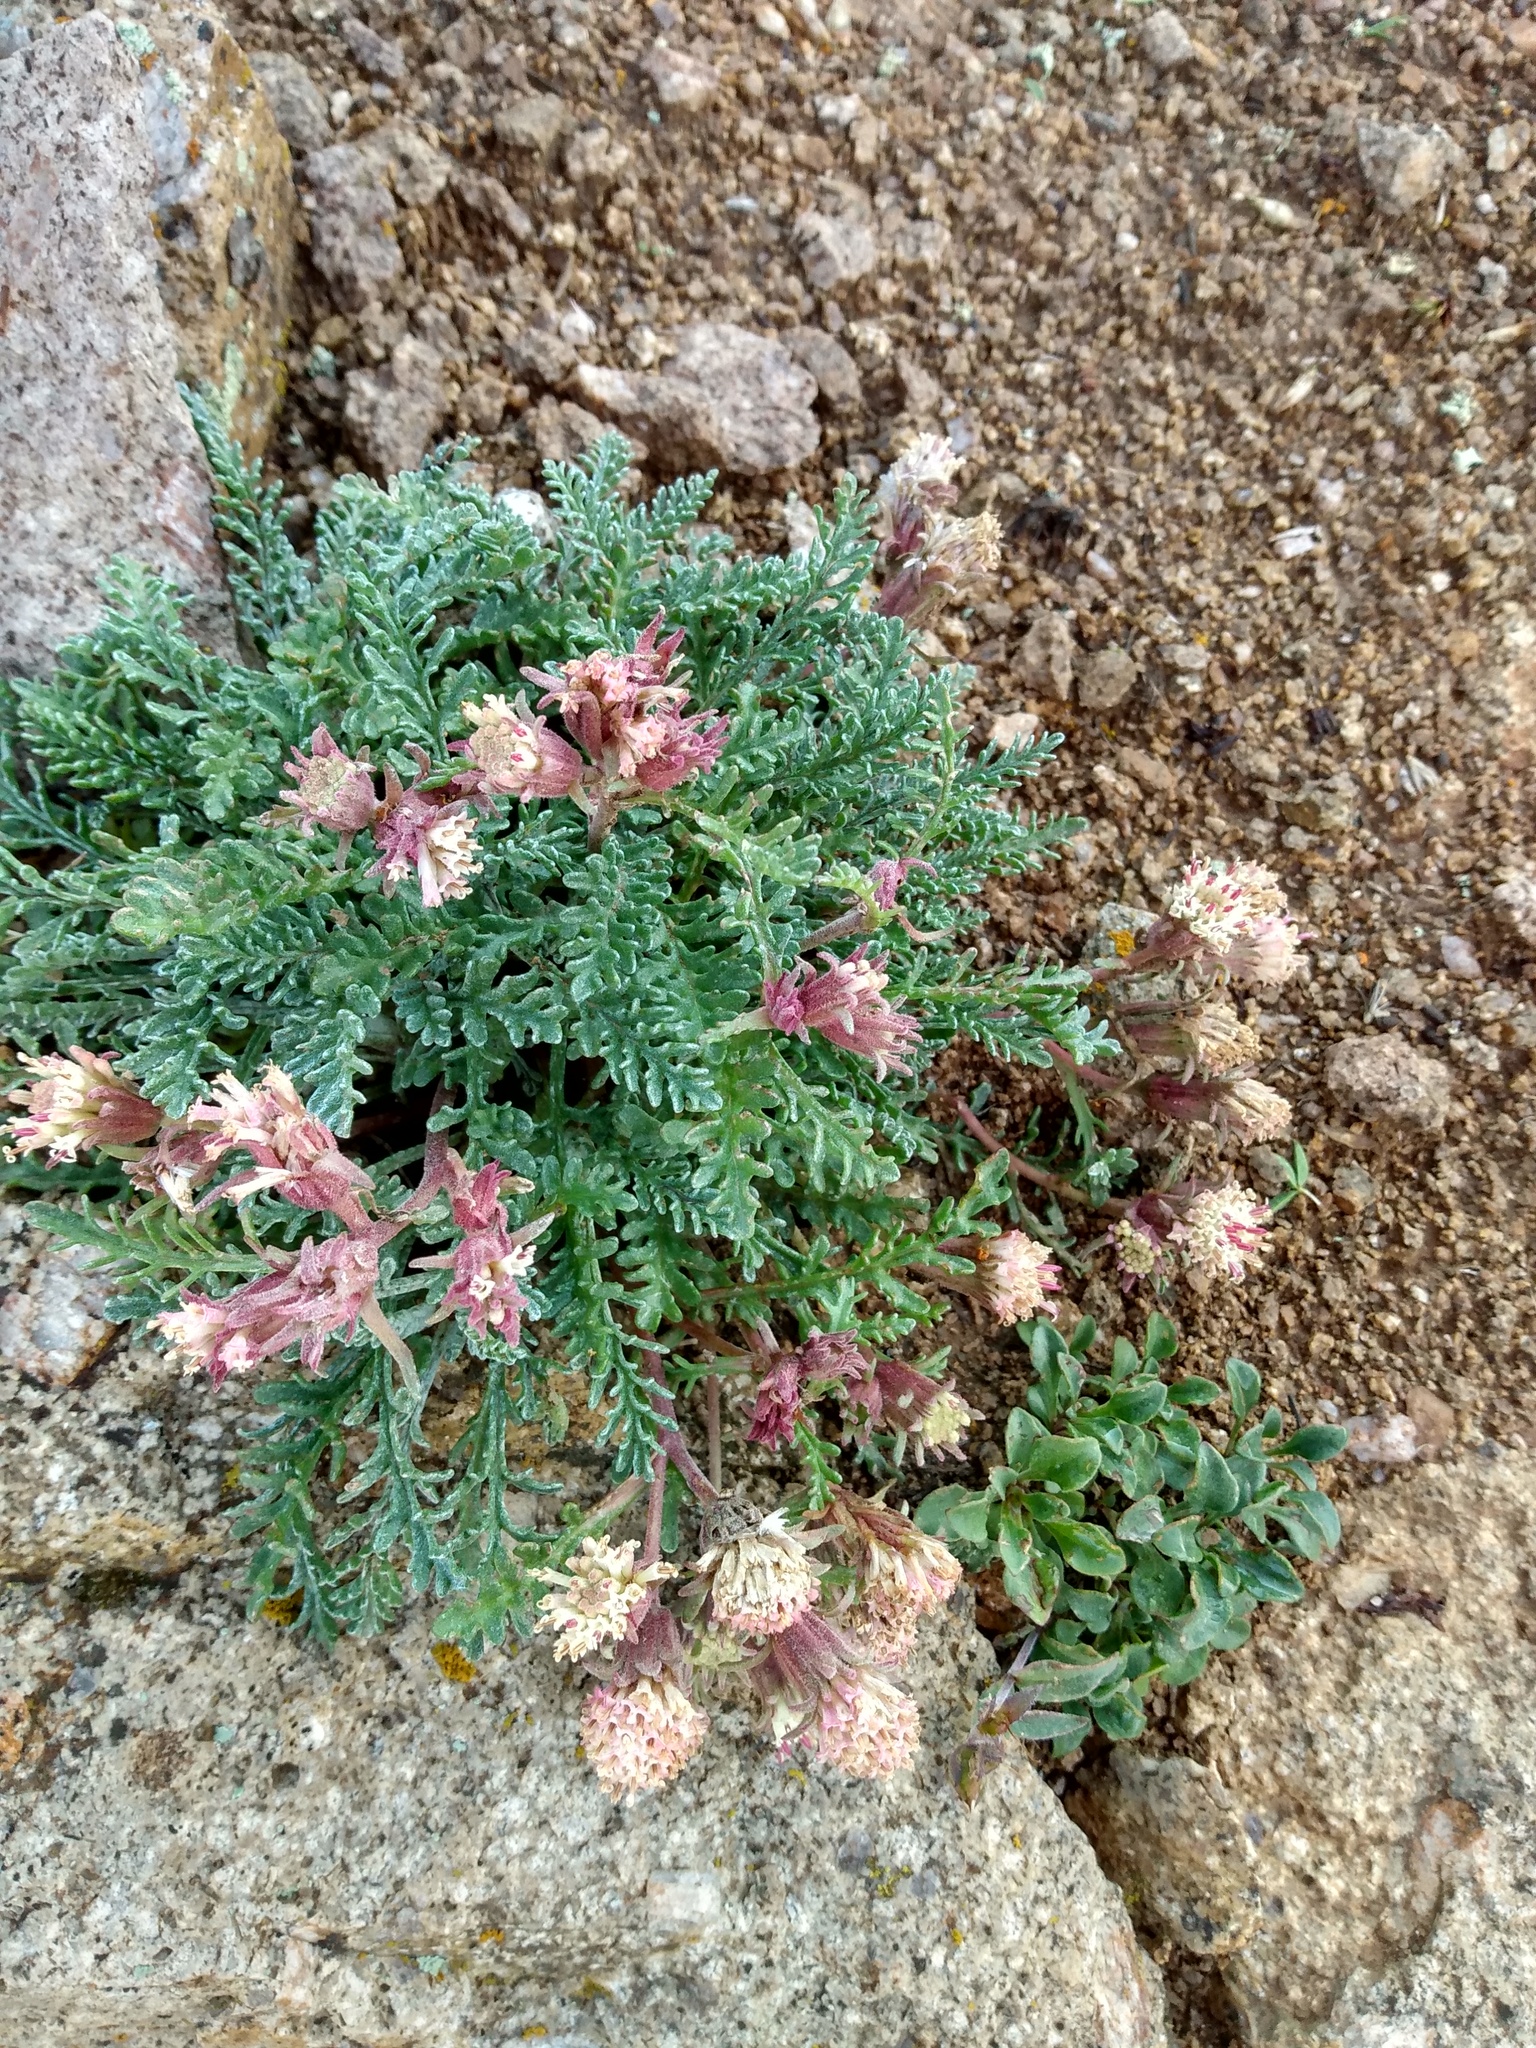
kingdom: Plantae
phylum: Tracheophyta
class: Magnoliopsida
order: Asterales
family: Asteraceae
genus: Chaenactis
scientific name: Chaenactis douglasii
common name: Hoary pincushion
